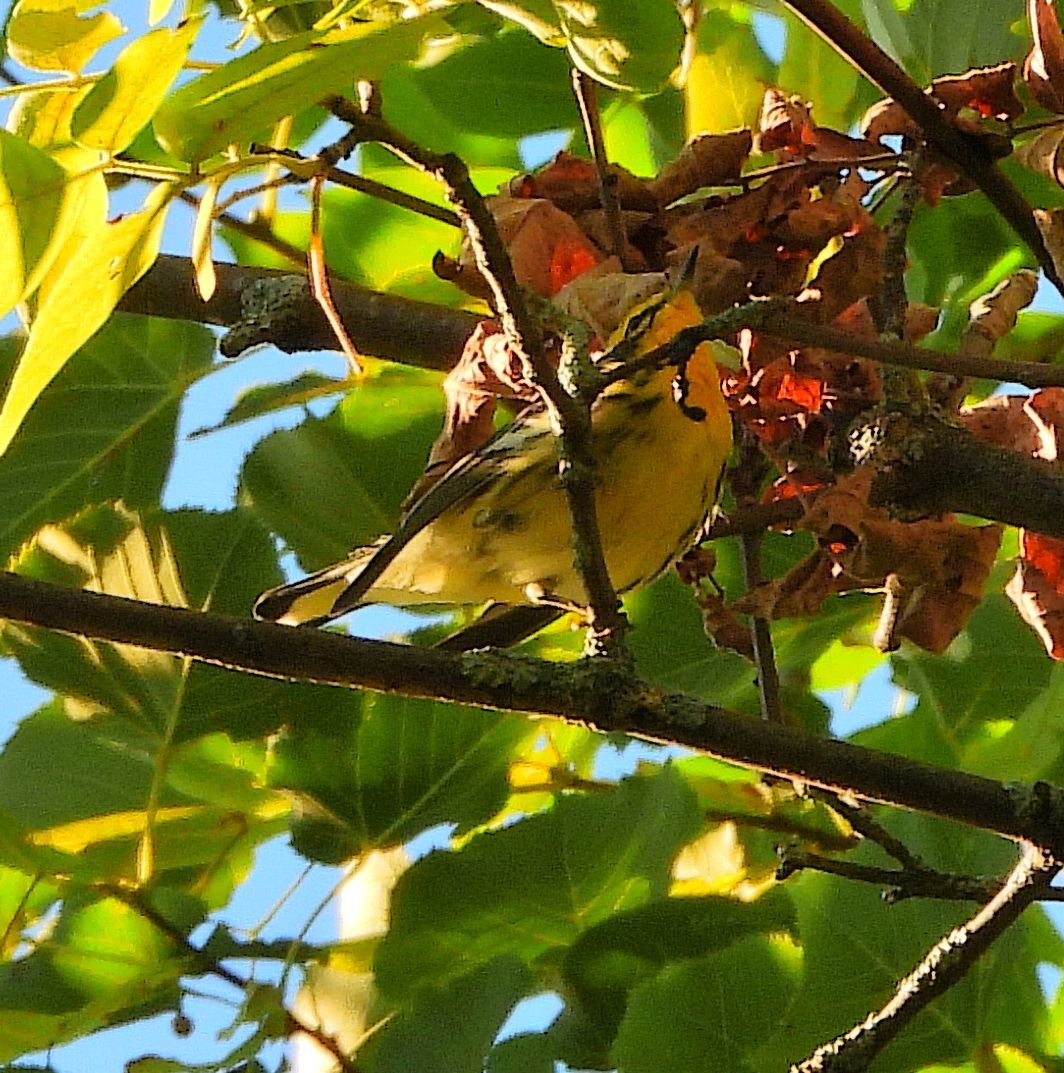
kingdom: Animalia
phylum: Chordata
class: Aves
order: Passeriformes
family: Parulidae
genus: Setophaga
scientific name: Setophaga fusca
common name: Blackburnian warbler
